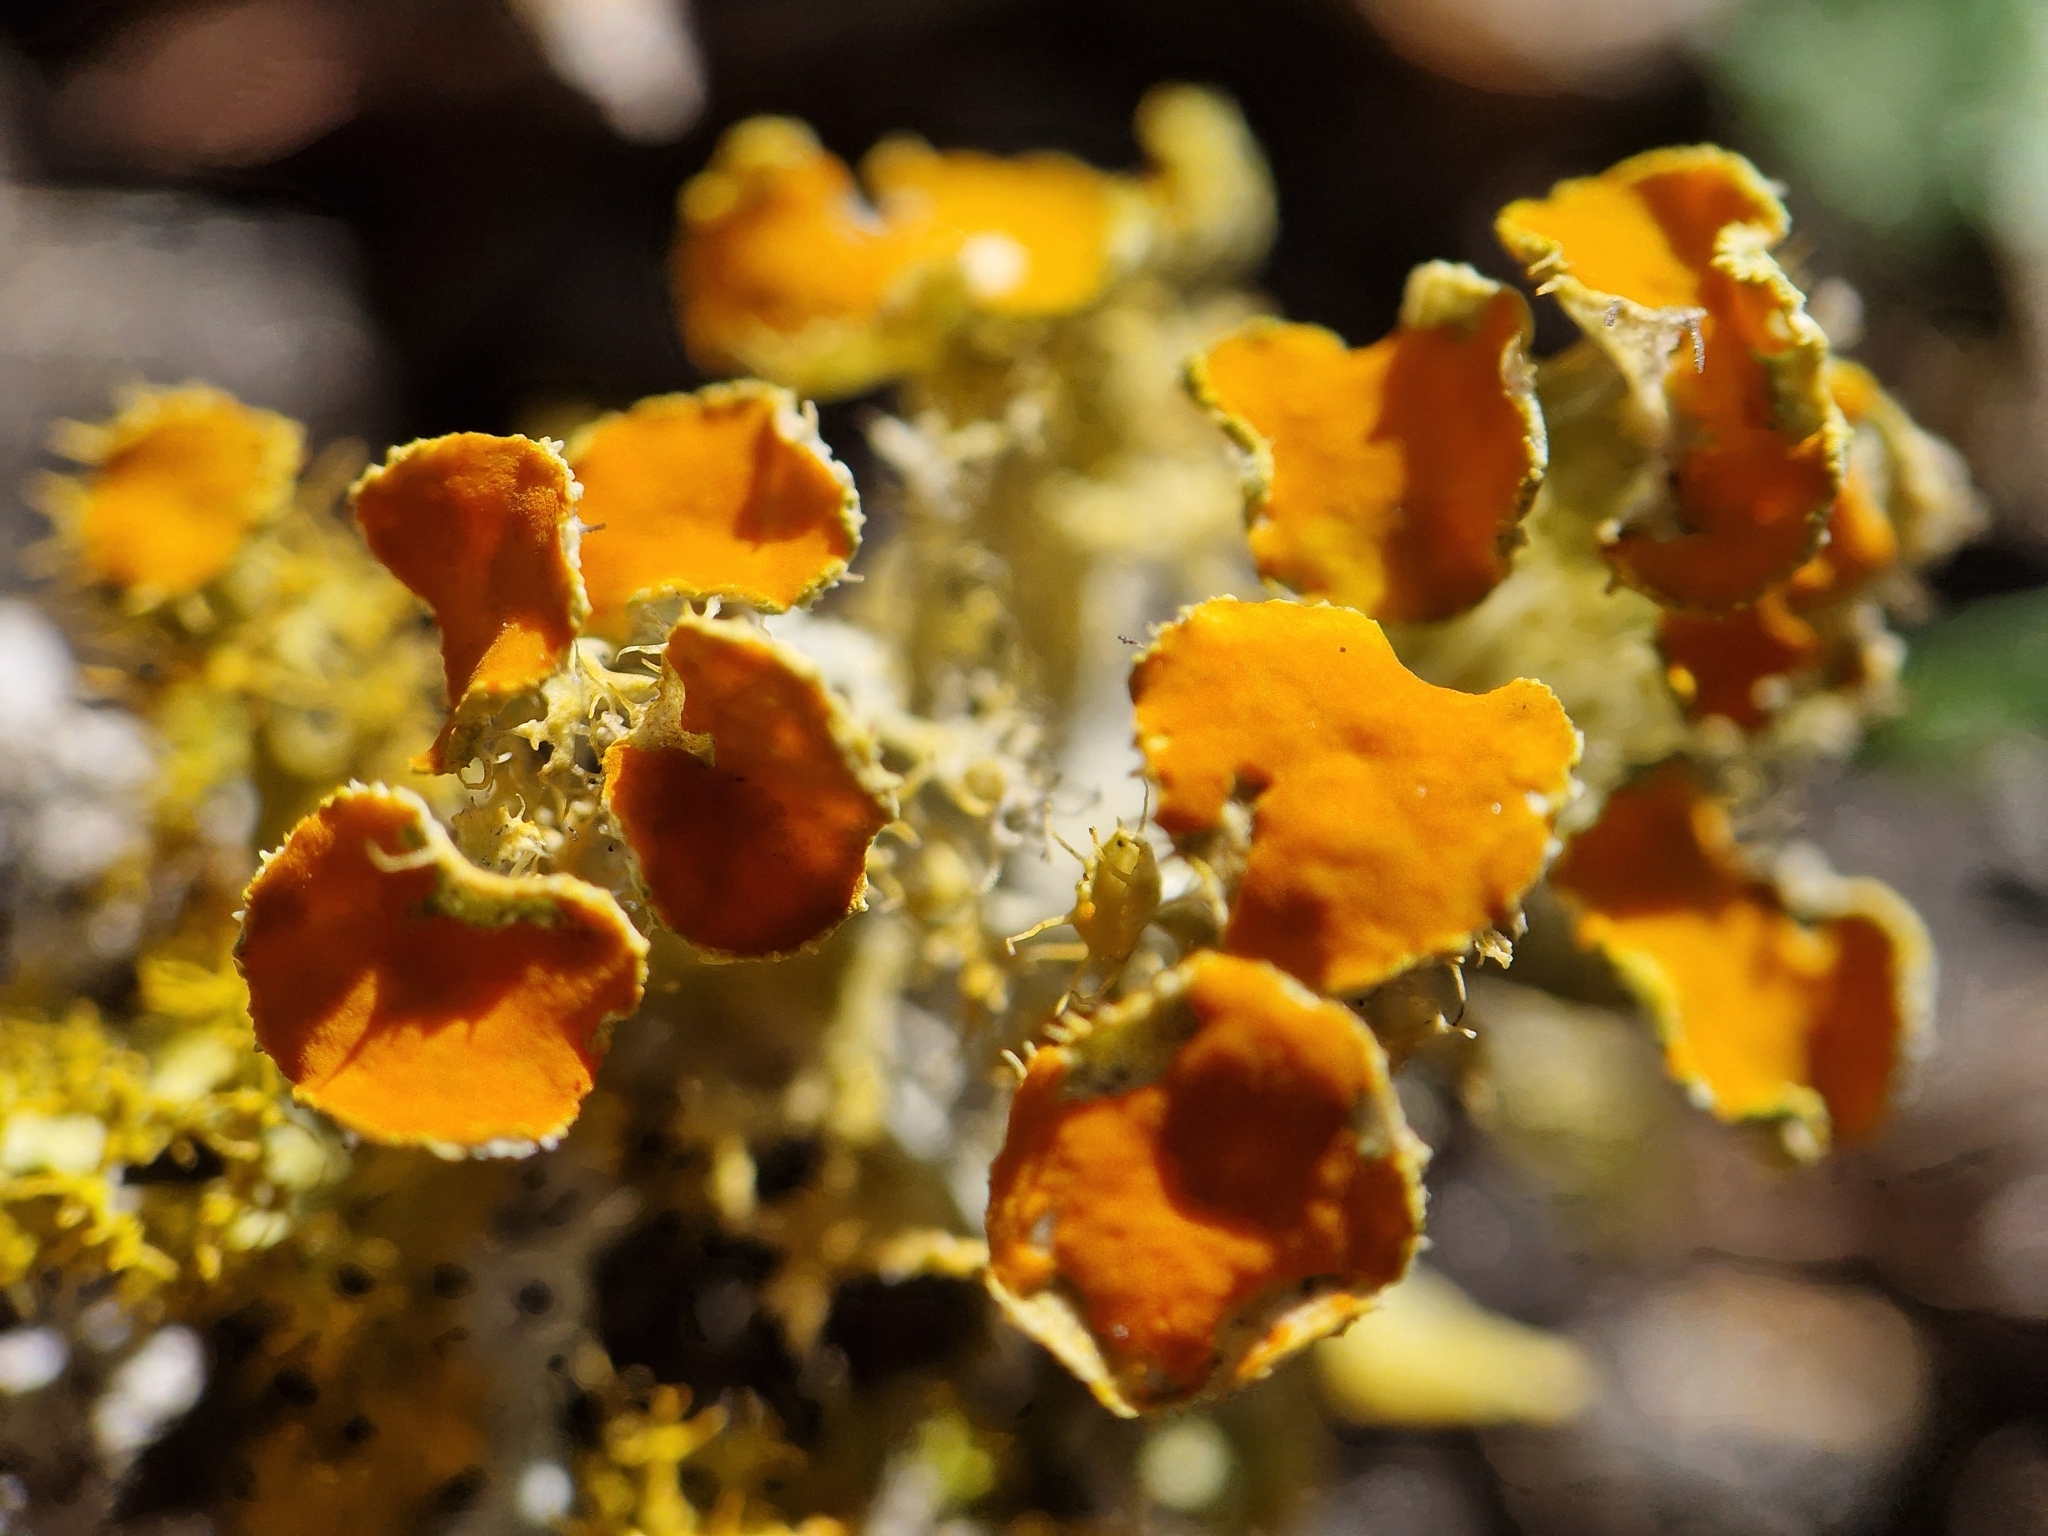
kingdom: Fungi
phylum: Ascomycota
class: Lecanoromycetes
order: Teloschistales
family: Teloschistaceae
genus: Niorma
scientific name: Niorma chrysophthalma
